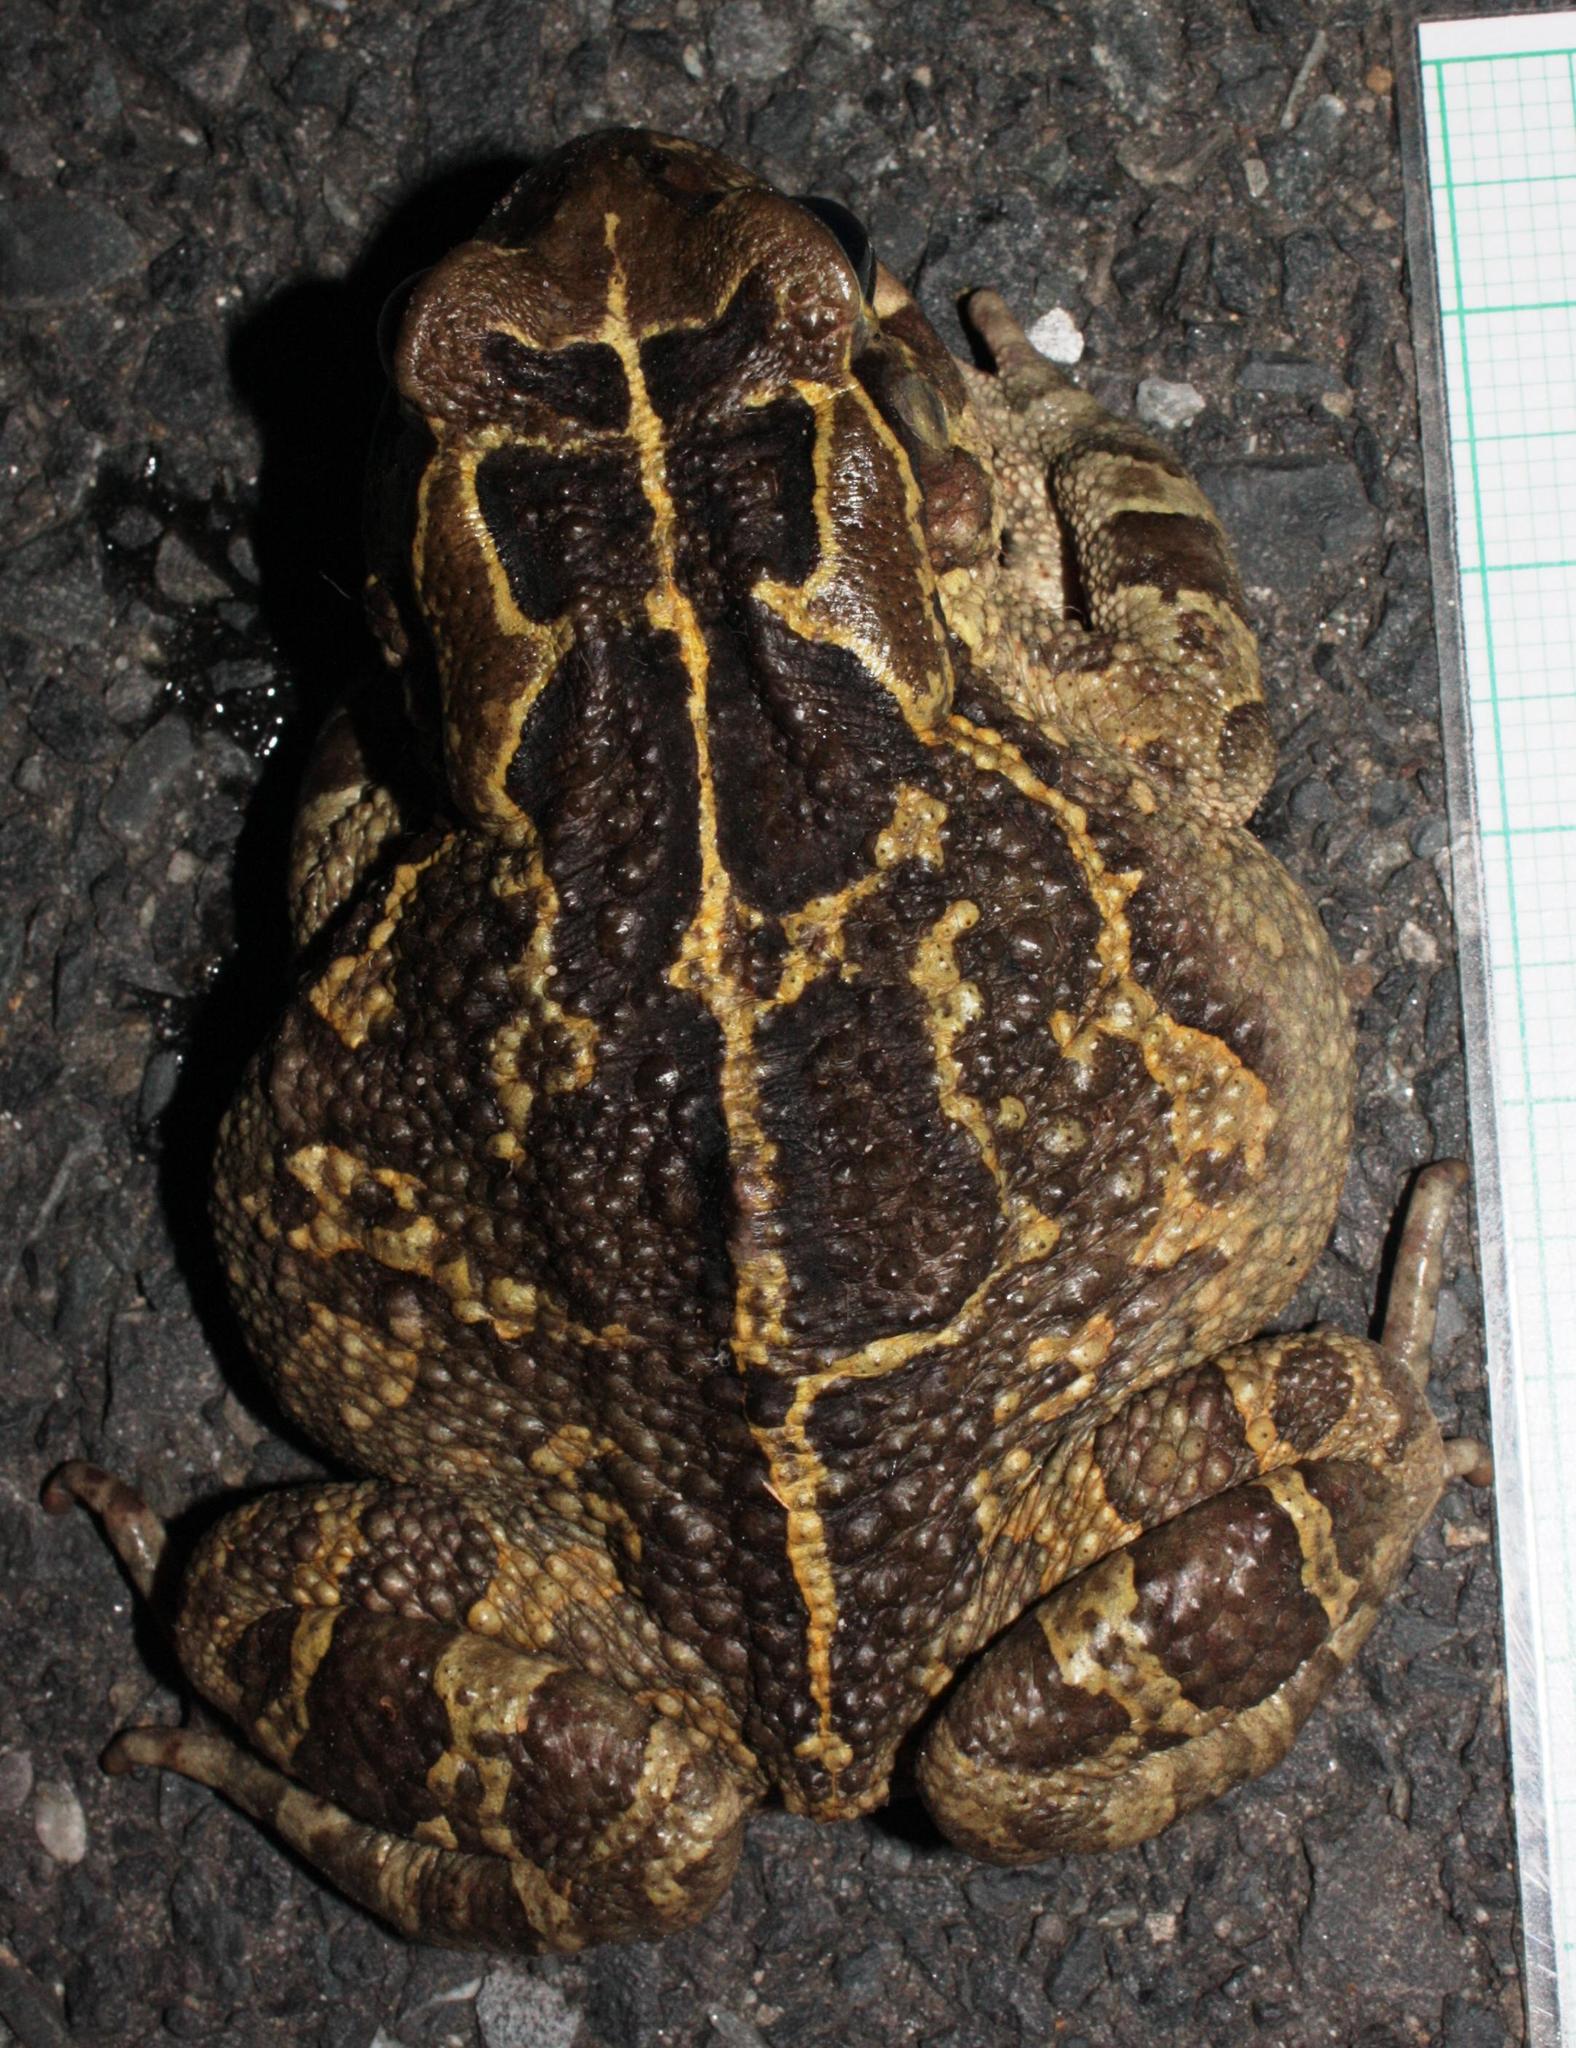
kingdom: Animalia
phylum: Chordata
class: Amphibia
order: Anura
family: Bufonidae
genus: Sclerophrys
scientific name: Sclerophrys pantherina
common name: Panther toad
